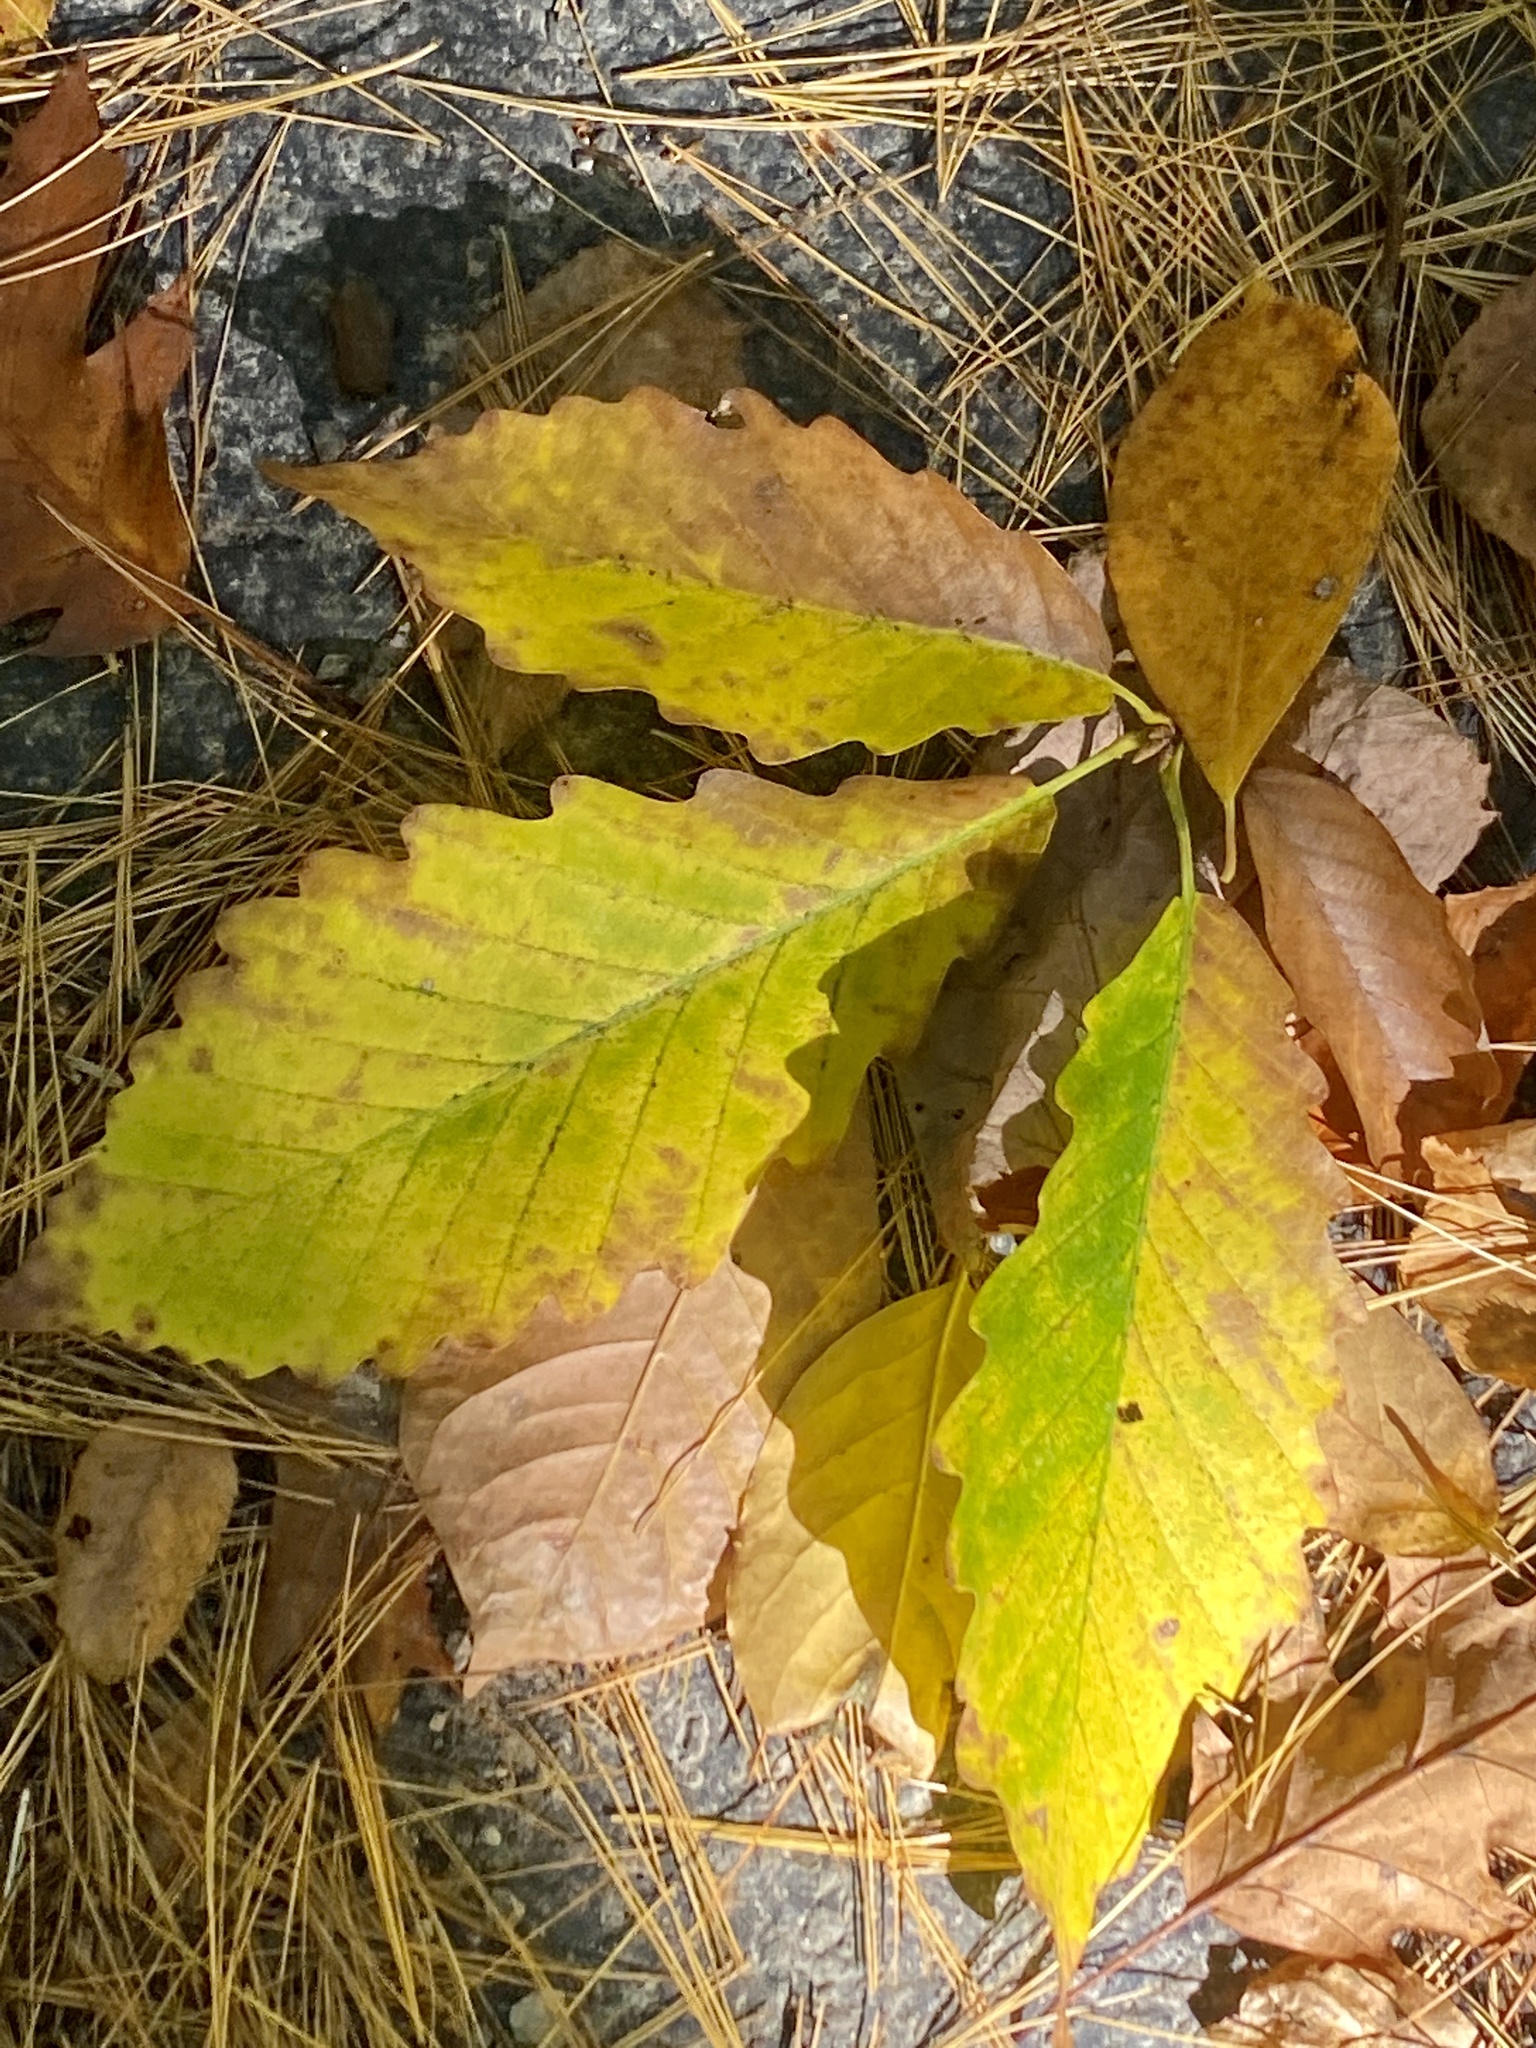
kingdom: Plantae
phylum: Tracheophyta
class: Magnoliopsida
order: Fagales
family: Fagaceae
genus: Quercus
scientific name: Quercus montana
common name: Chestnut oak
